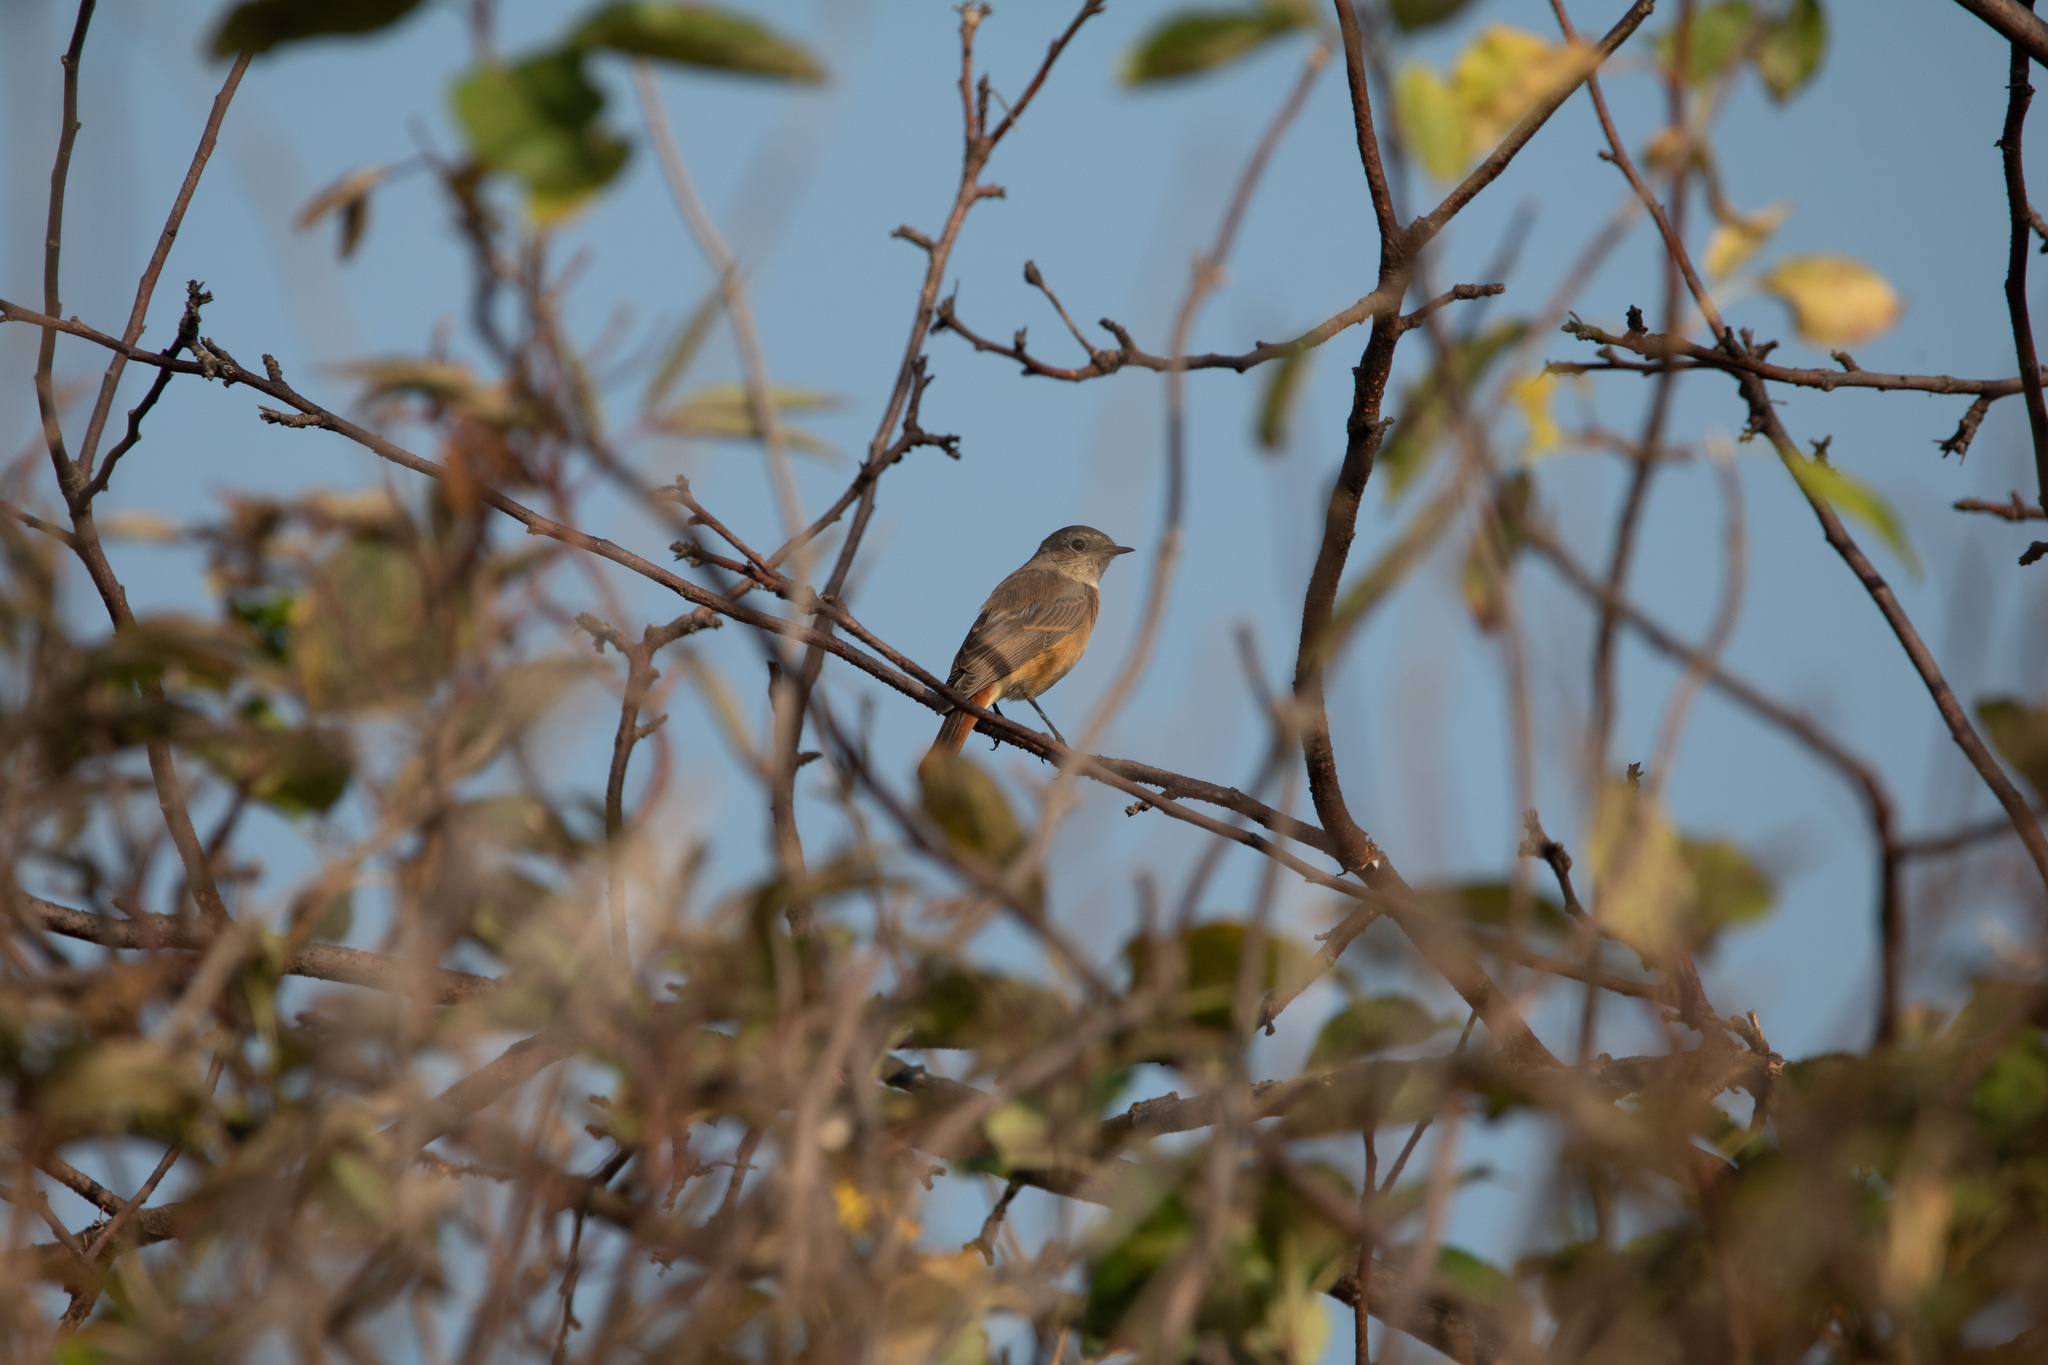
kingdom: Animalia
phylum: Chordata
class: Aves
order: Passeriformes
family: Muscicapidae
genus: Phoenicurus
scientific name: Phoenicurus phoenicurus
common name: Common redstart
